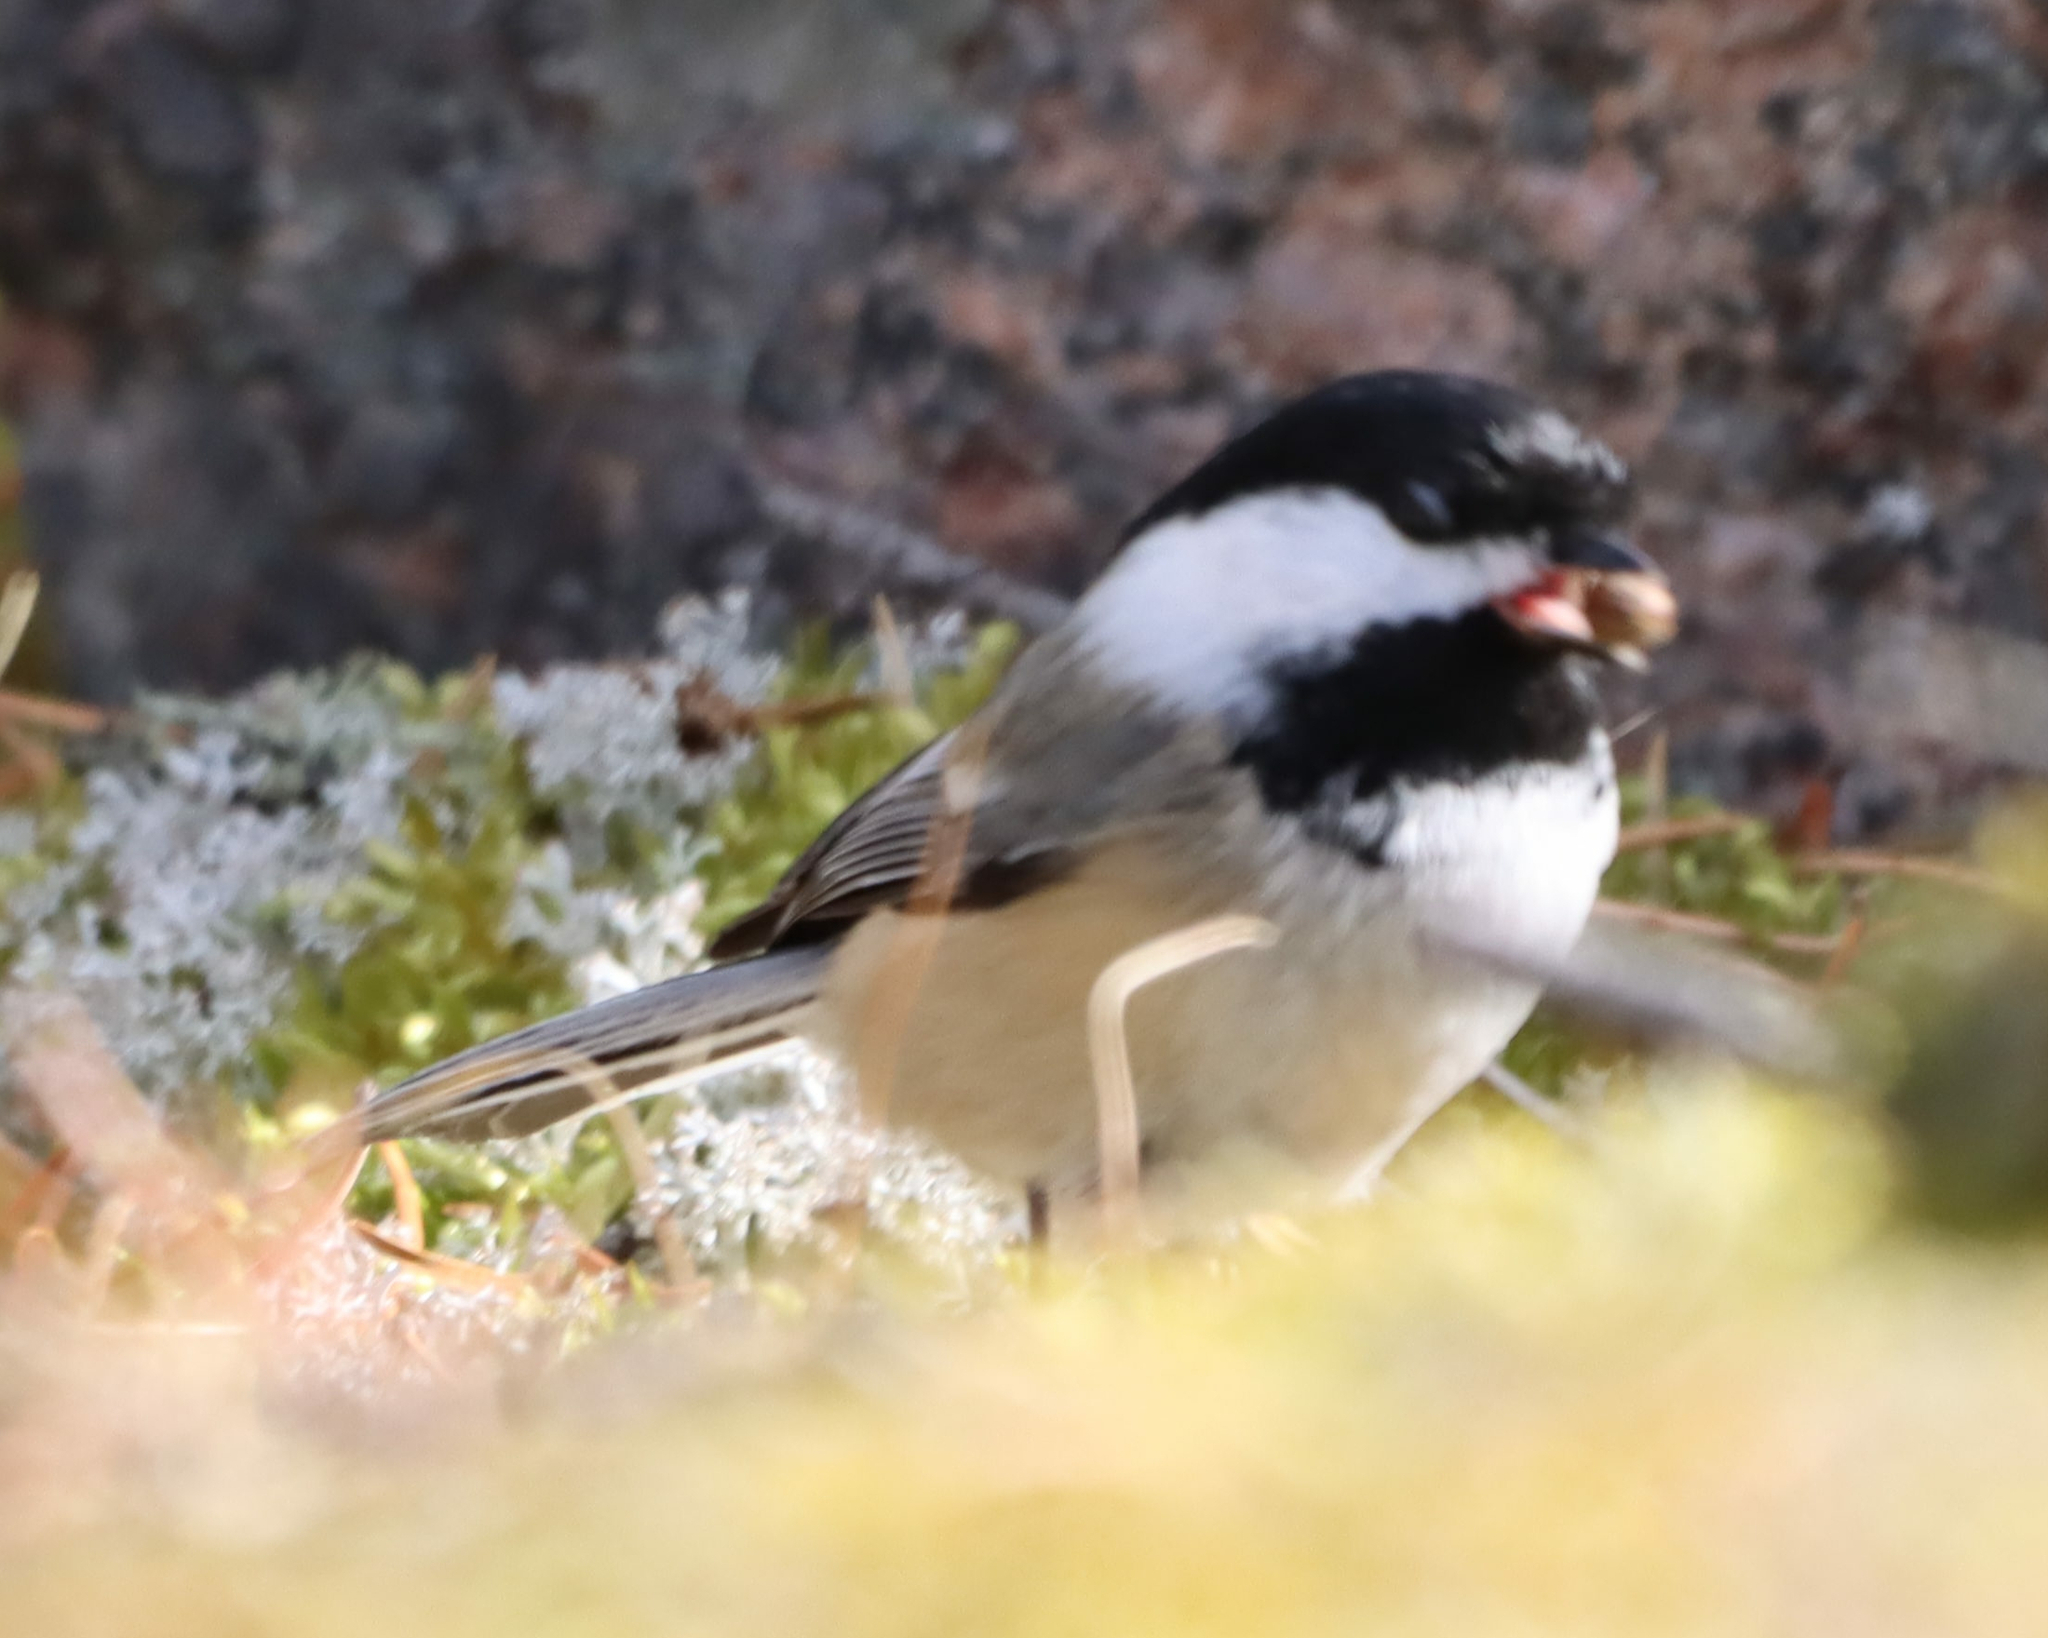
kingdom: Animalia
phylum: Chordata
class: Aves
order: Passeriformes
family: Paridae
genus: Poecile
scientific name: Poecile atricapillus
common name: Black-capped chickadee
